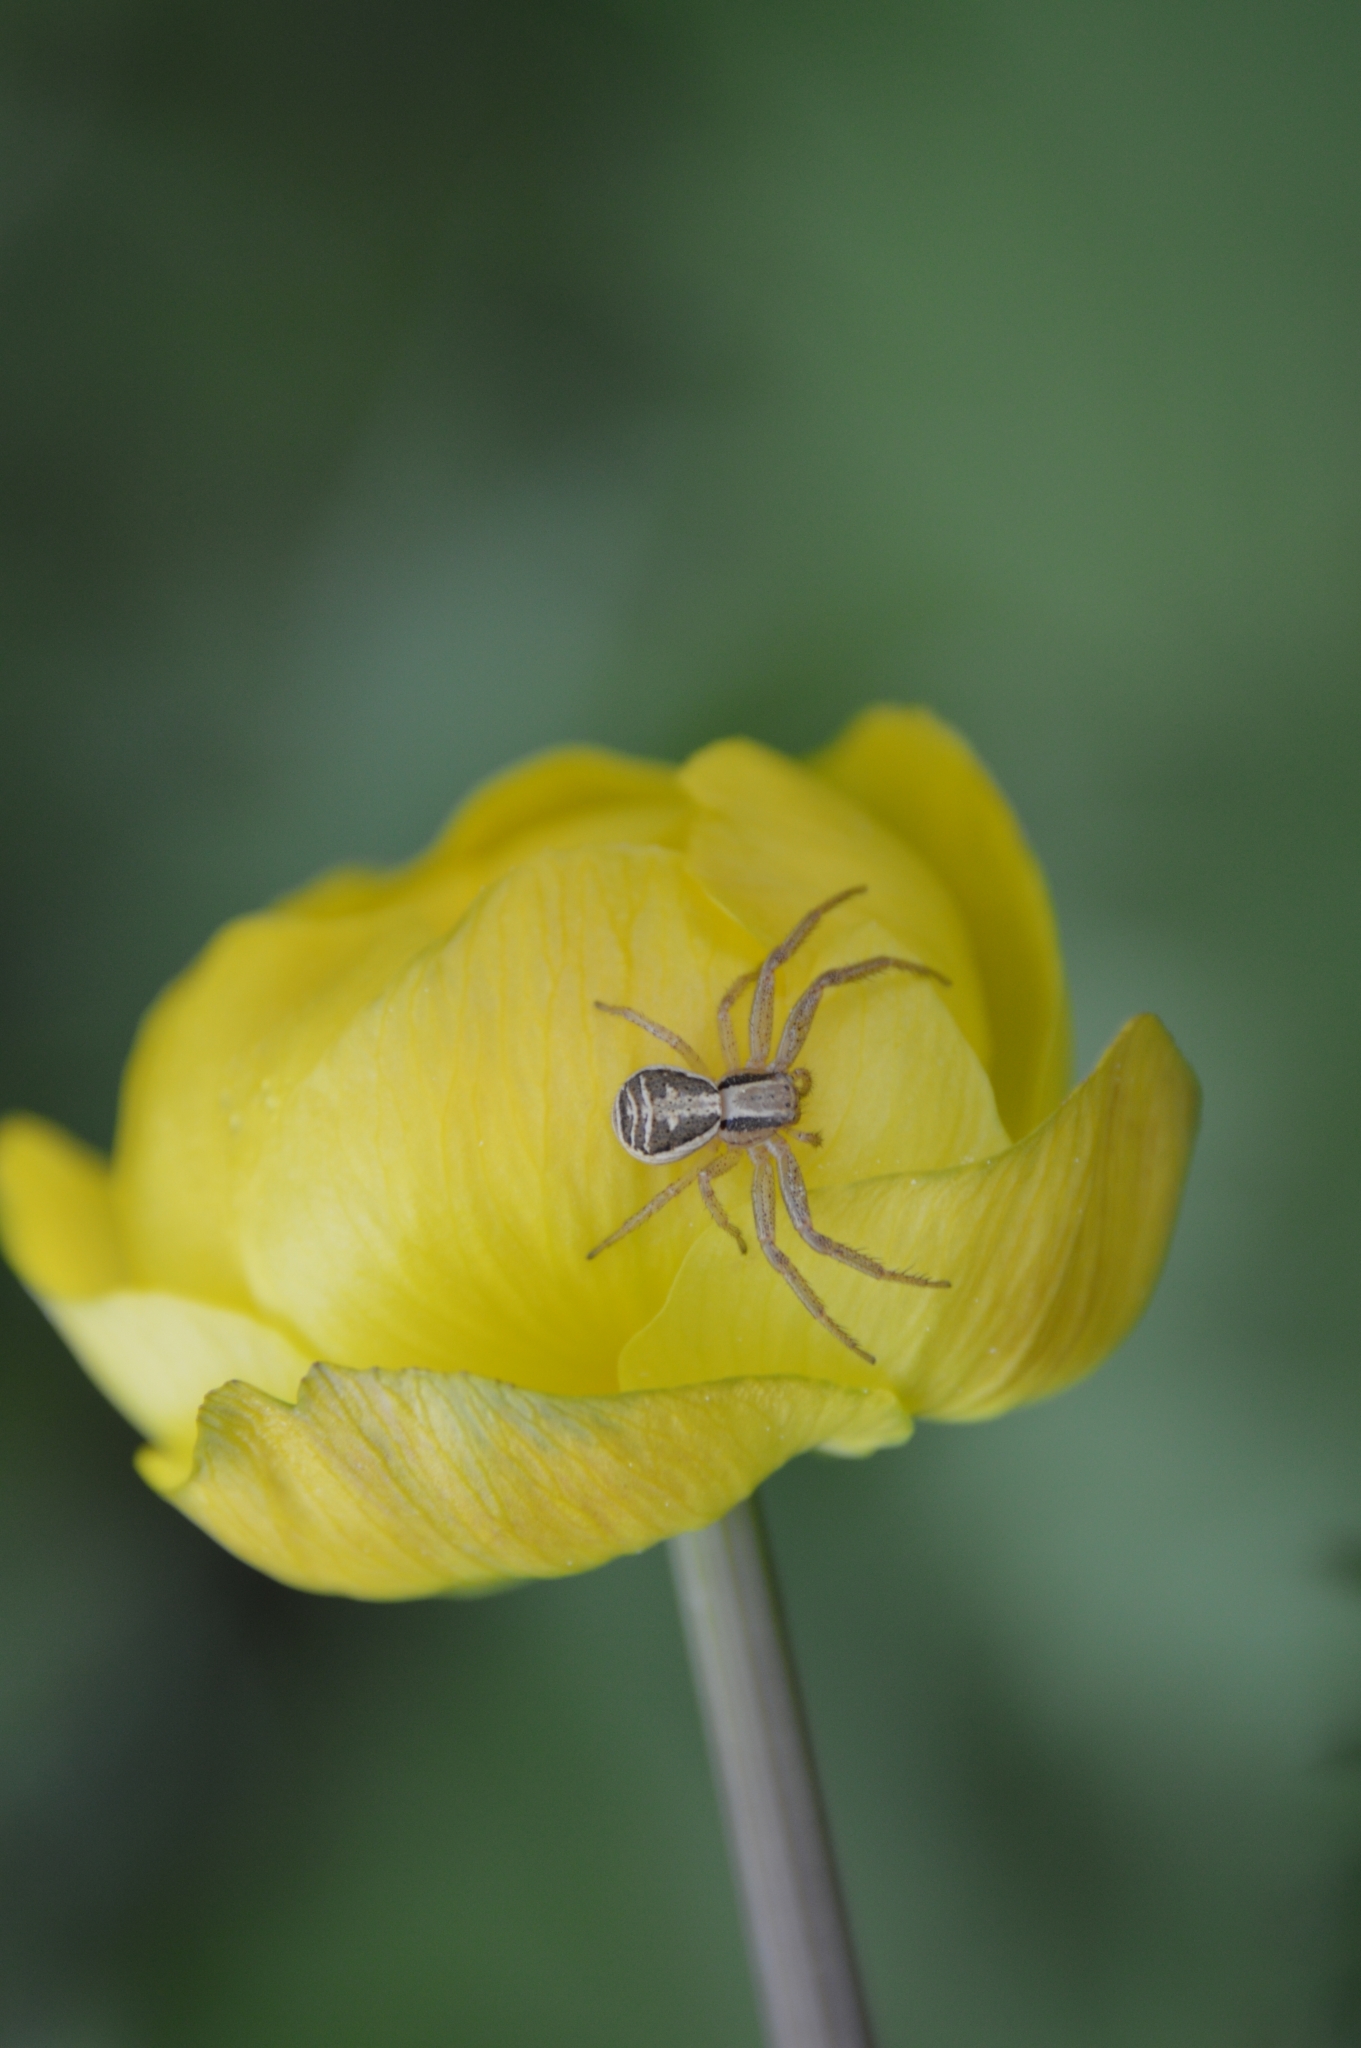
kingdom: Animalia
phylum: Arthropoda
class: Arachnida
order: Araneae
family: Thomisidae
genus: Xysticus
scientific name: Xysticus ulmi
